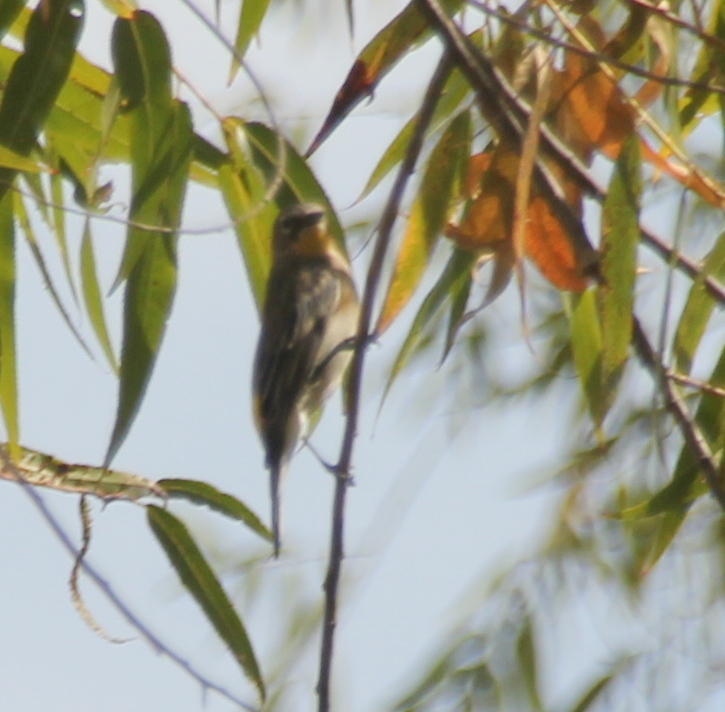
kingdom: Animalia
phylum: Chordata
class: Aves
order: Passeriformes
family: Parulidae
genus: Setophaga
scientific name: Setophaga auduboni
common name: Audubon's warbler
